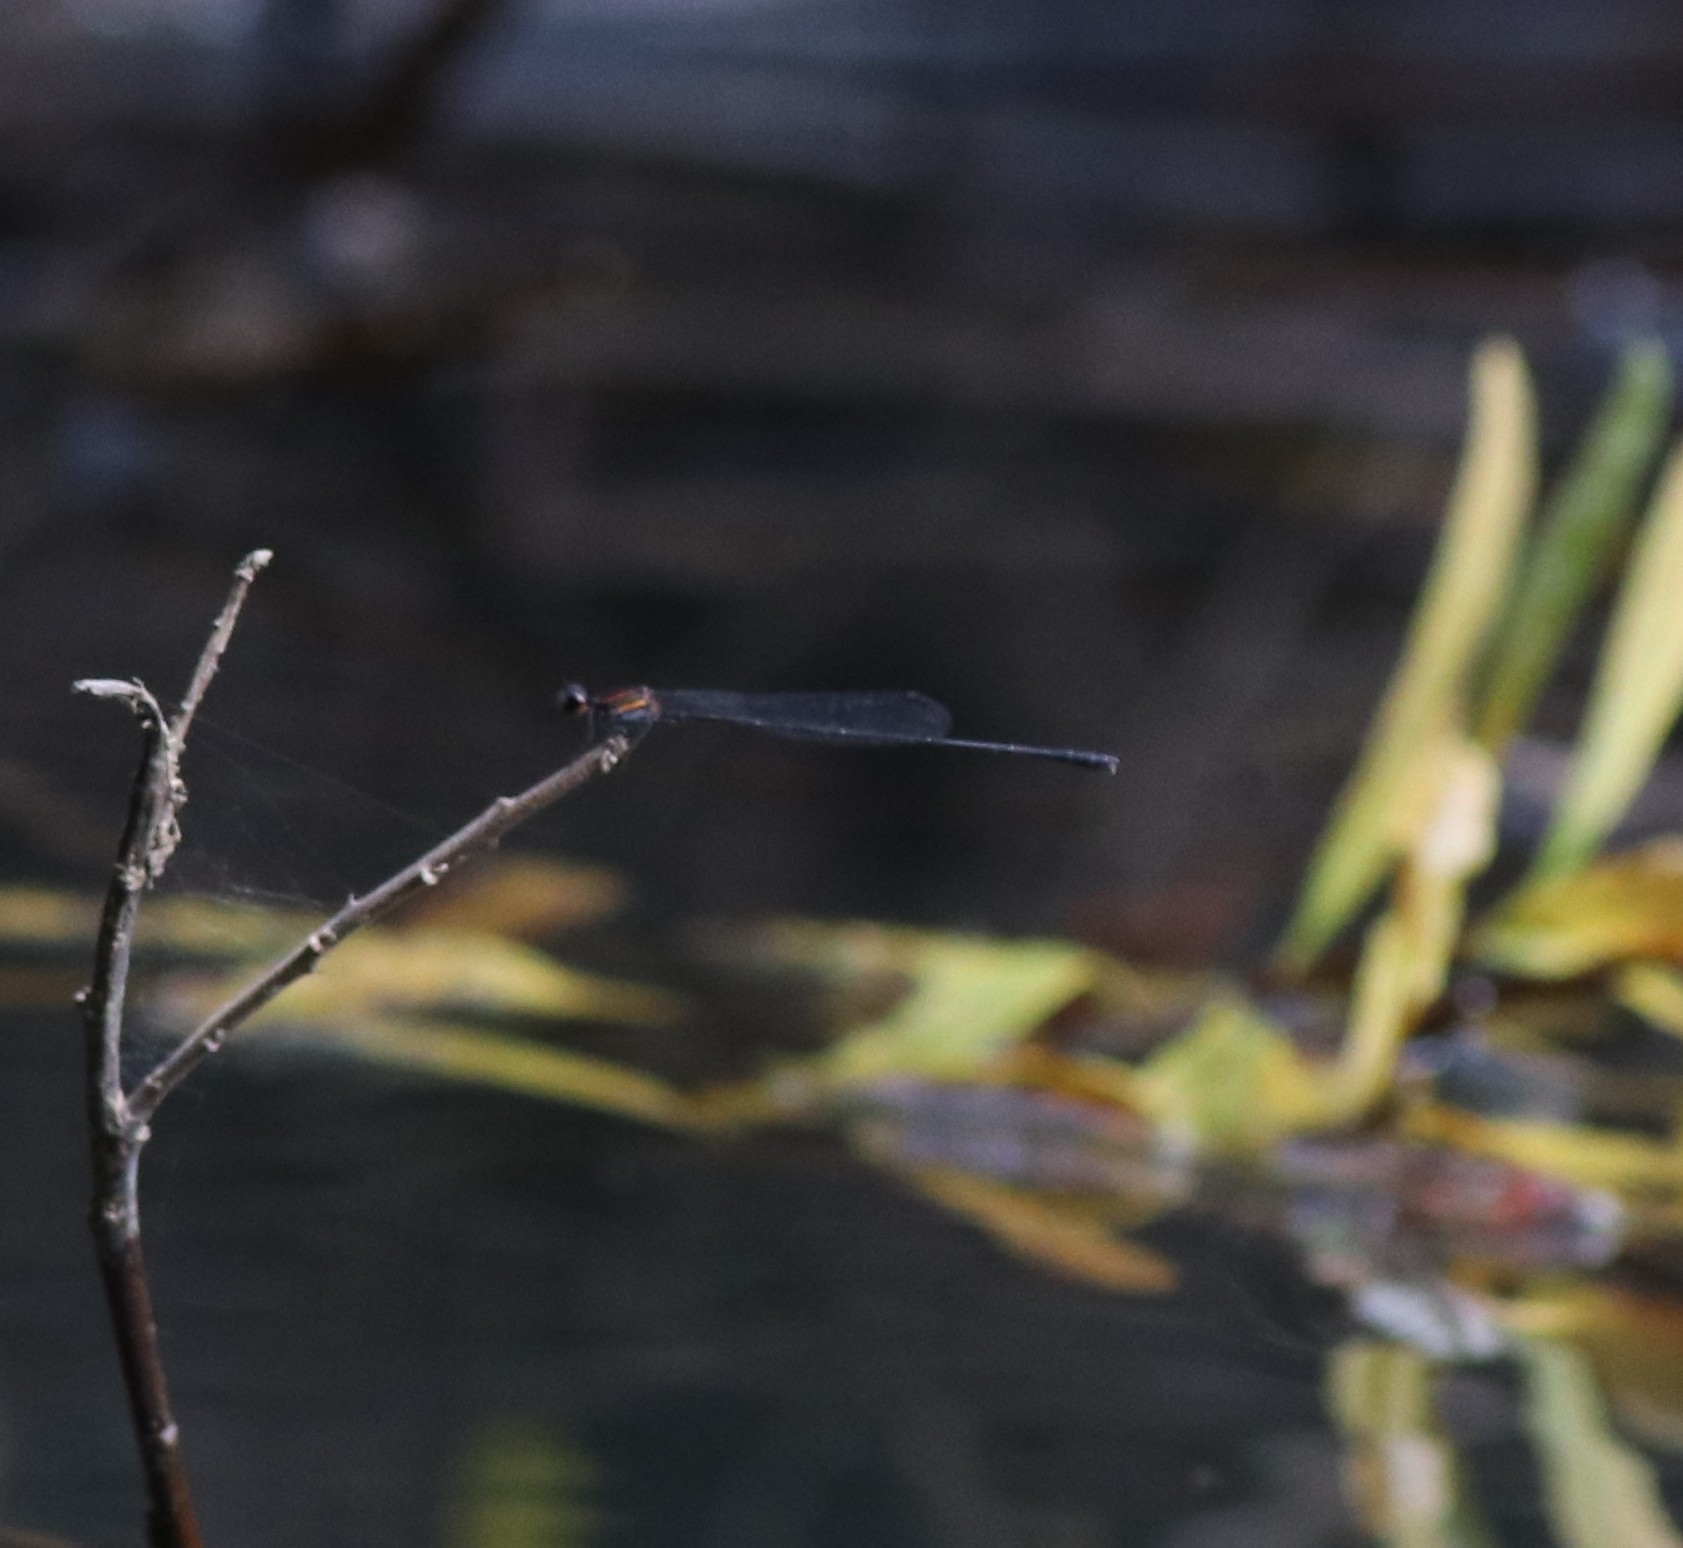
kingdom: Animalia
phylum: Arthropoda
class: Insecta
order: Odonata
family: Platycnemididae
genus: Prodasineura
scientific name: Prodasineura verticalis
